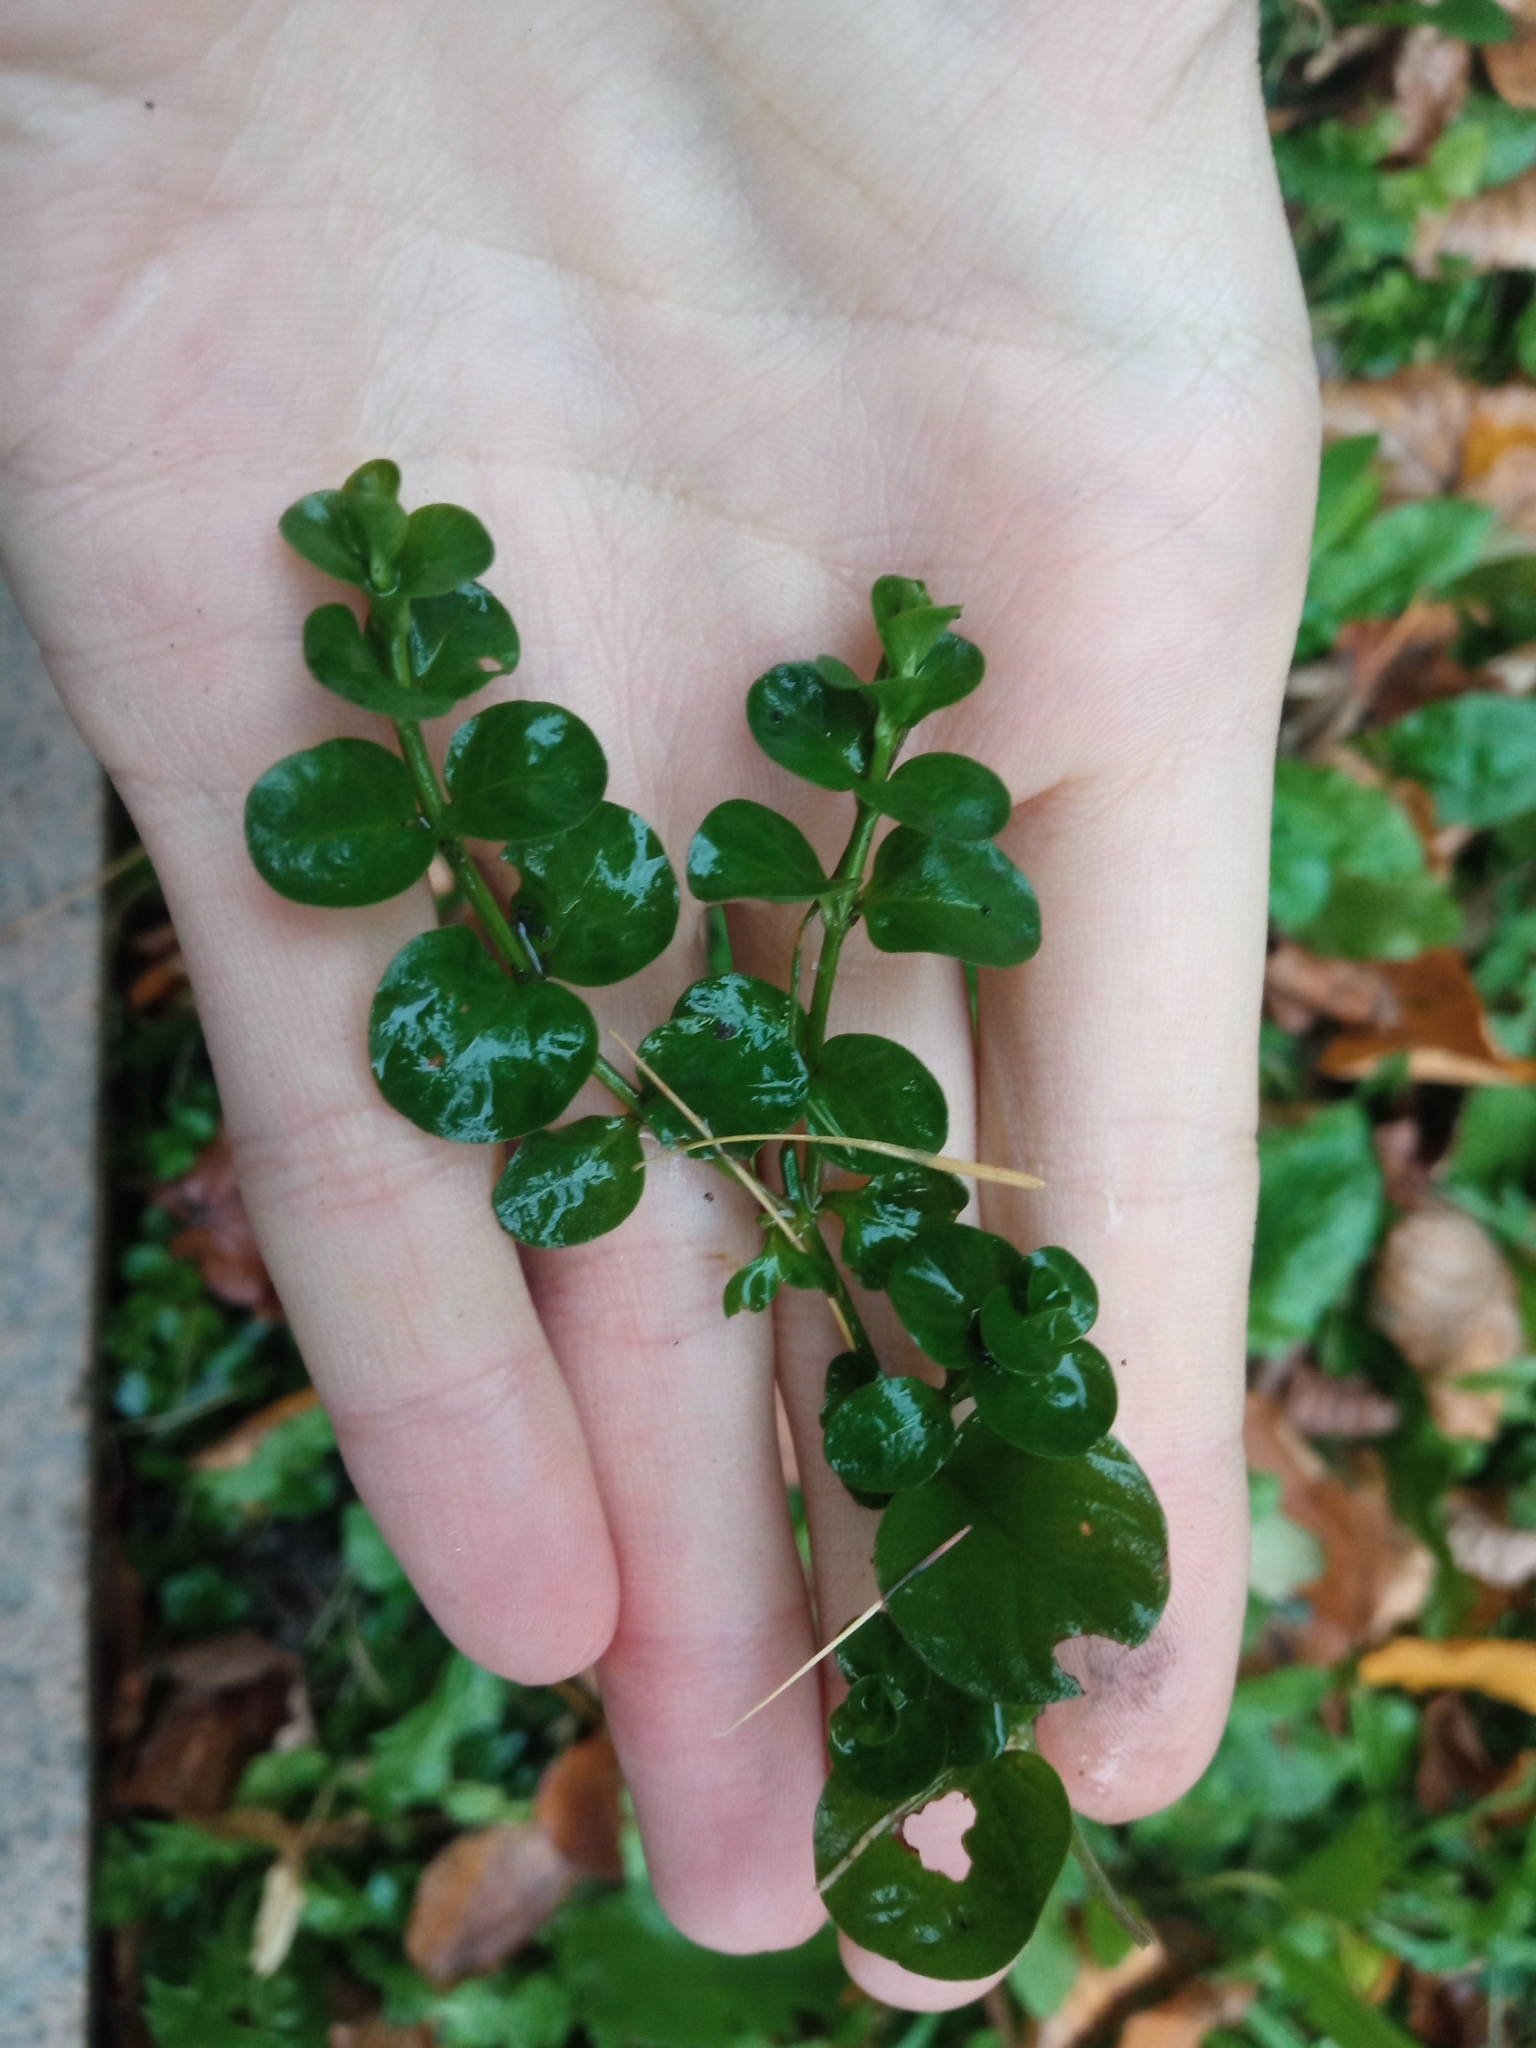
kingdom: Plantae
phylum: Tracheophyta
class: Magnoliopsida
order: Ericales
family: Primulaceae
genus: Lysimachia
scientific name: Lysimachia nummularia
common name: Moneywort
